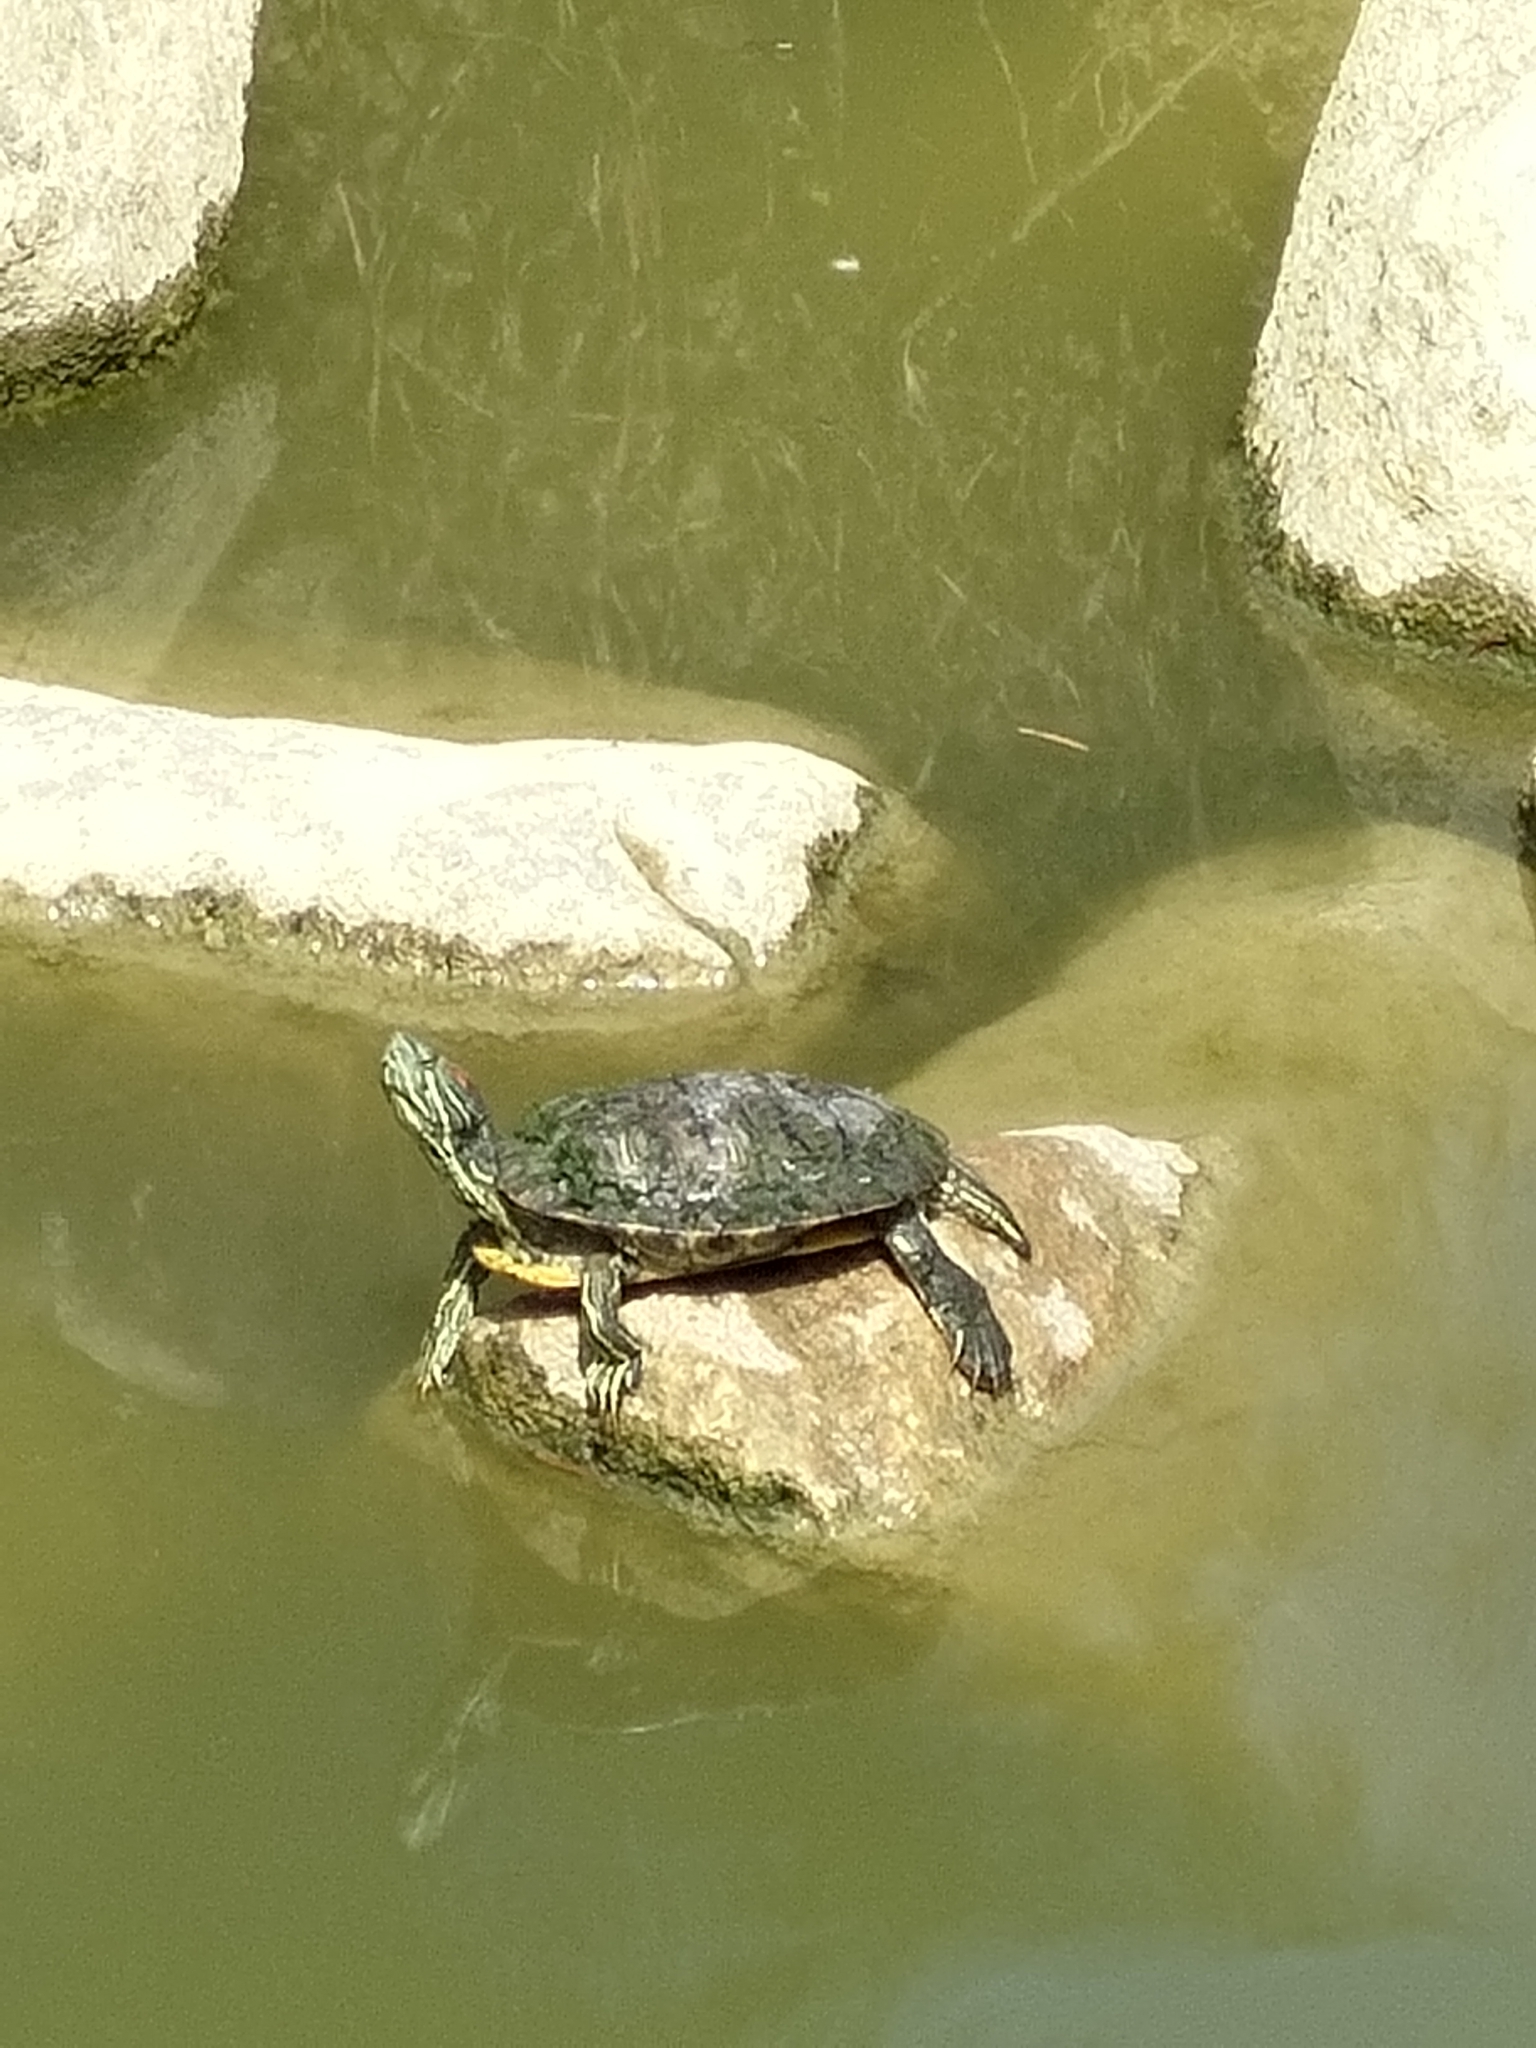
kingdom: Animalia
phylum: Chordata
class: Testudines
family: Emydidae
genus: Trachemys
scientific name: Trachemys scripta
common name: Slider
